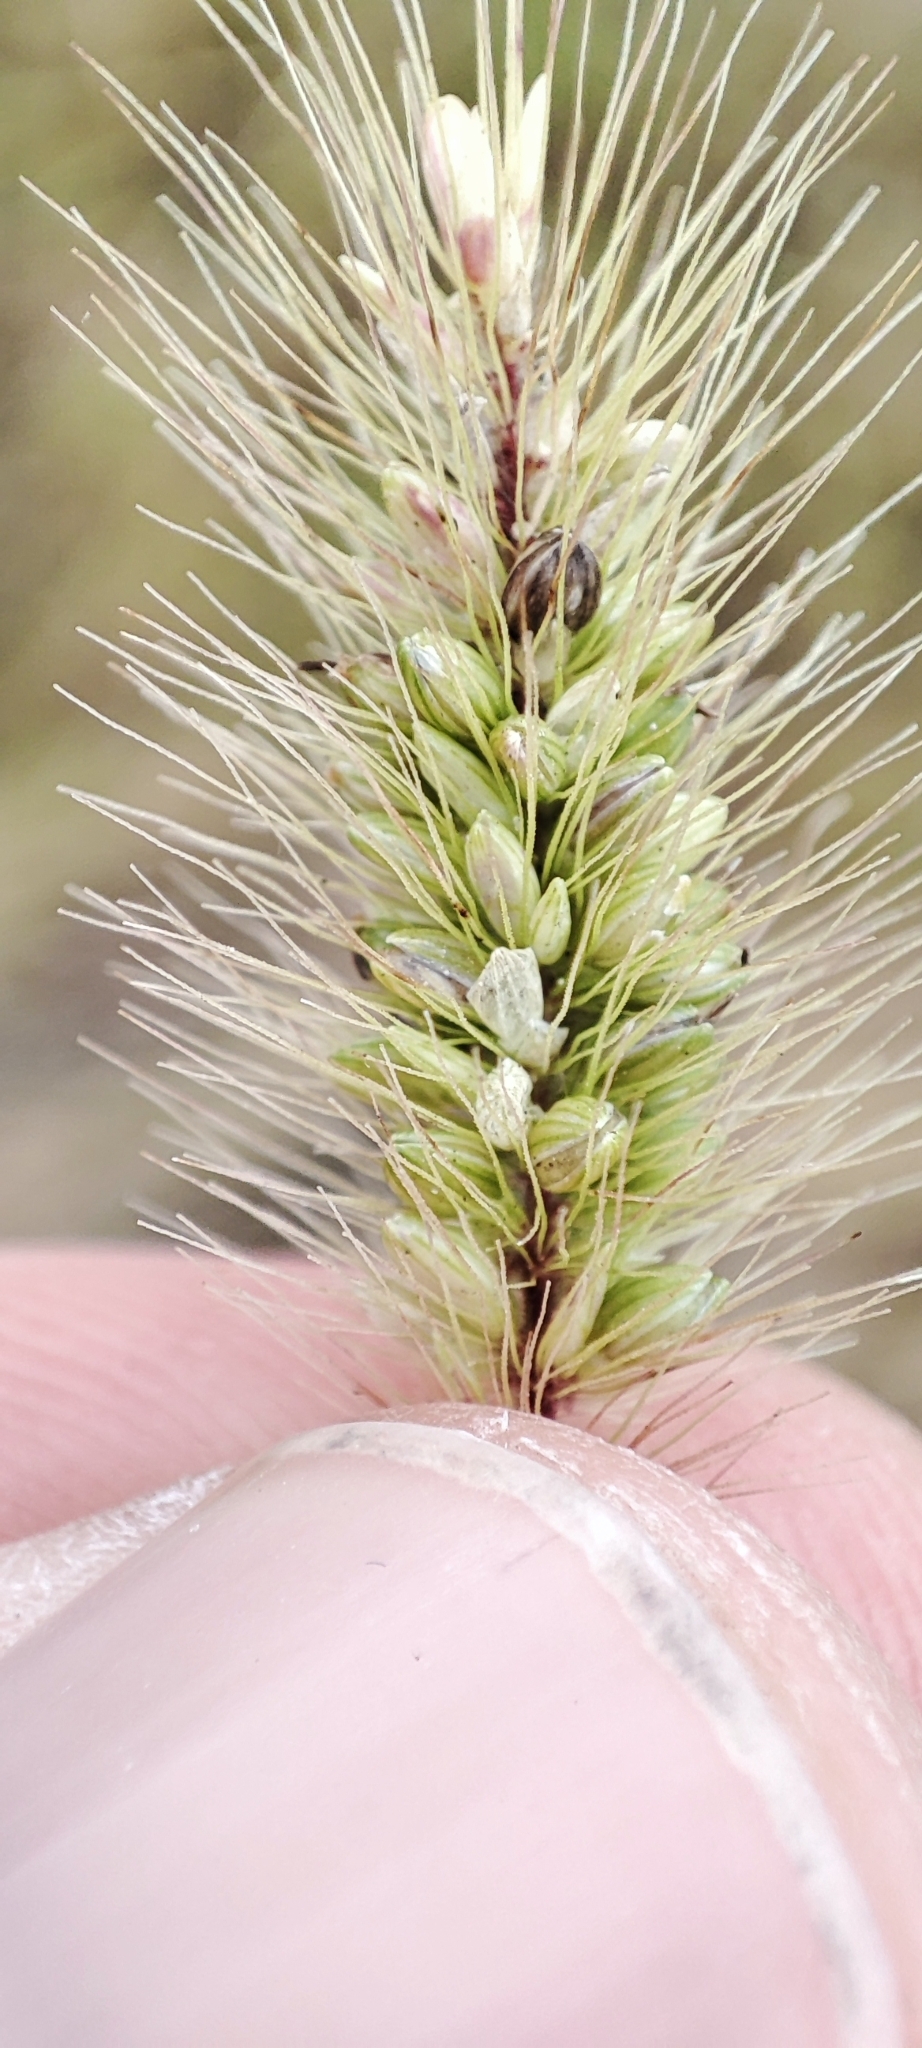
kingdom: Plantae
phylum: Tracheophyta
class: Liliopsida
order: Poales
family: Poaceae
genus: Setaria
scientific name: Setaria viridis
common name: Green bristlegrass
